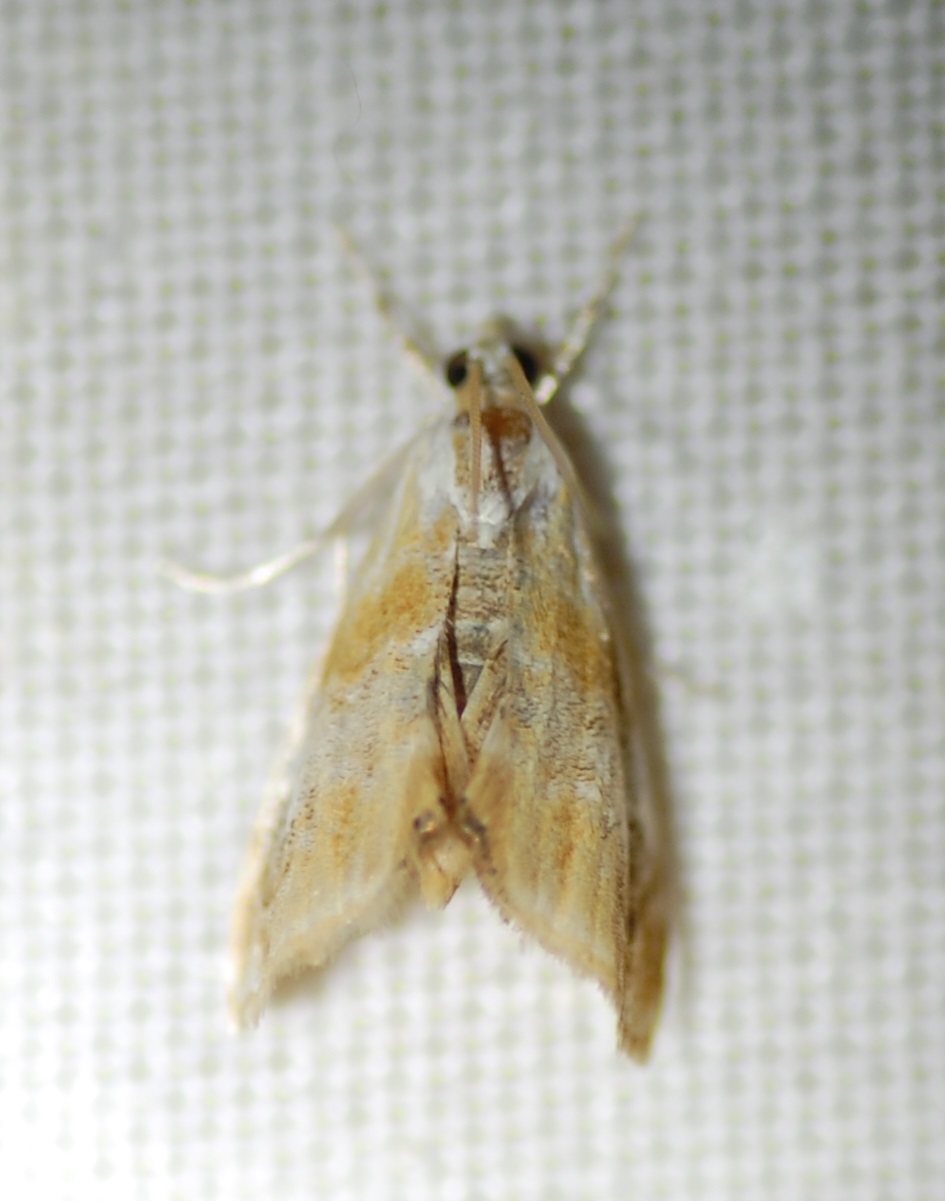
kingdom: Animalia
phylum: Arthropoda
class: Insecta
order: Lepidoptera
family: Crambidae
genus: Dicymolomia
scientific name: Dicymolomia julianalis
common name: Julia's dicymolomia moth
